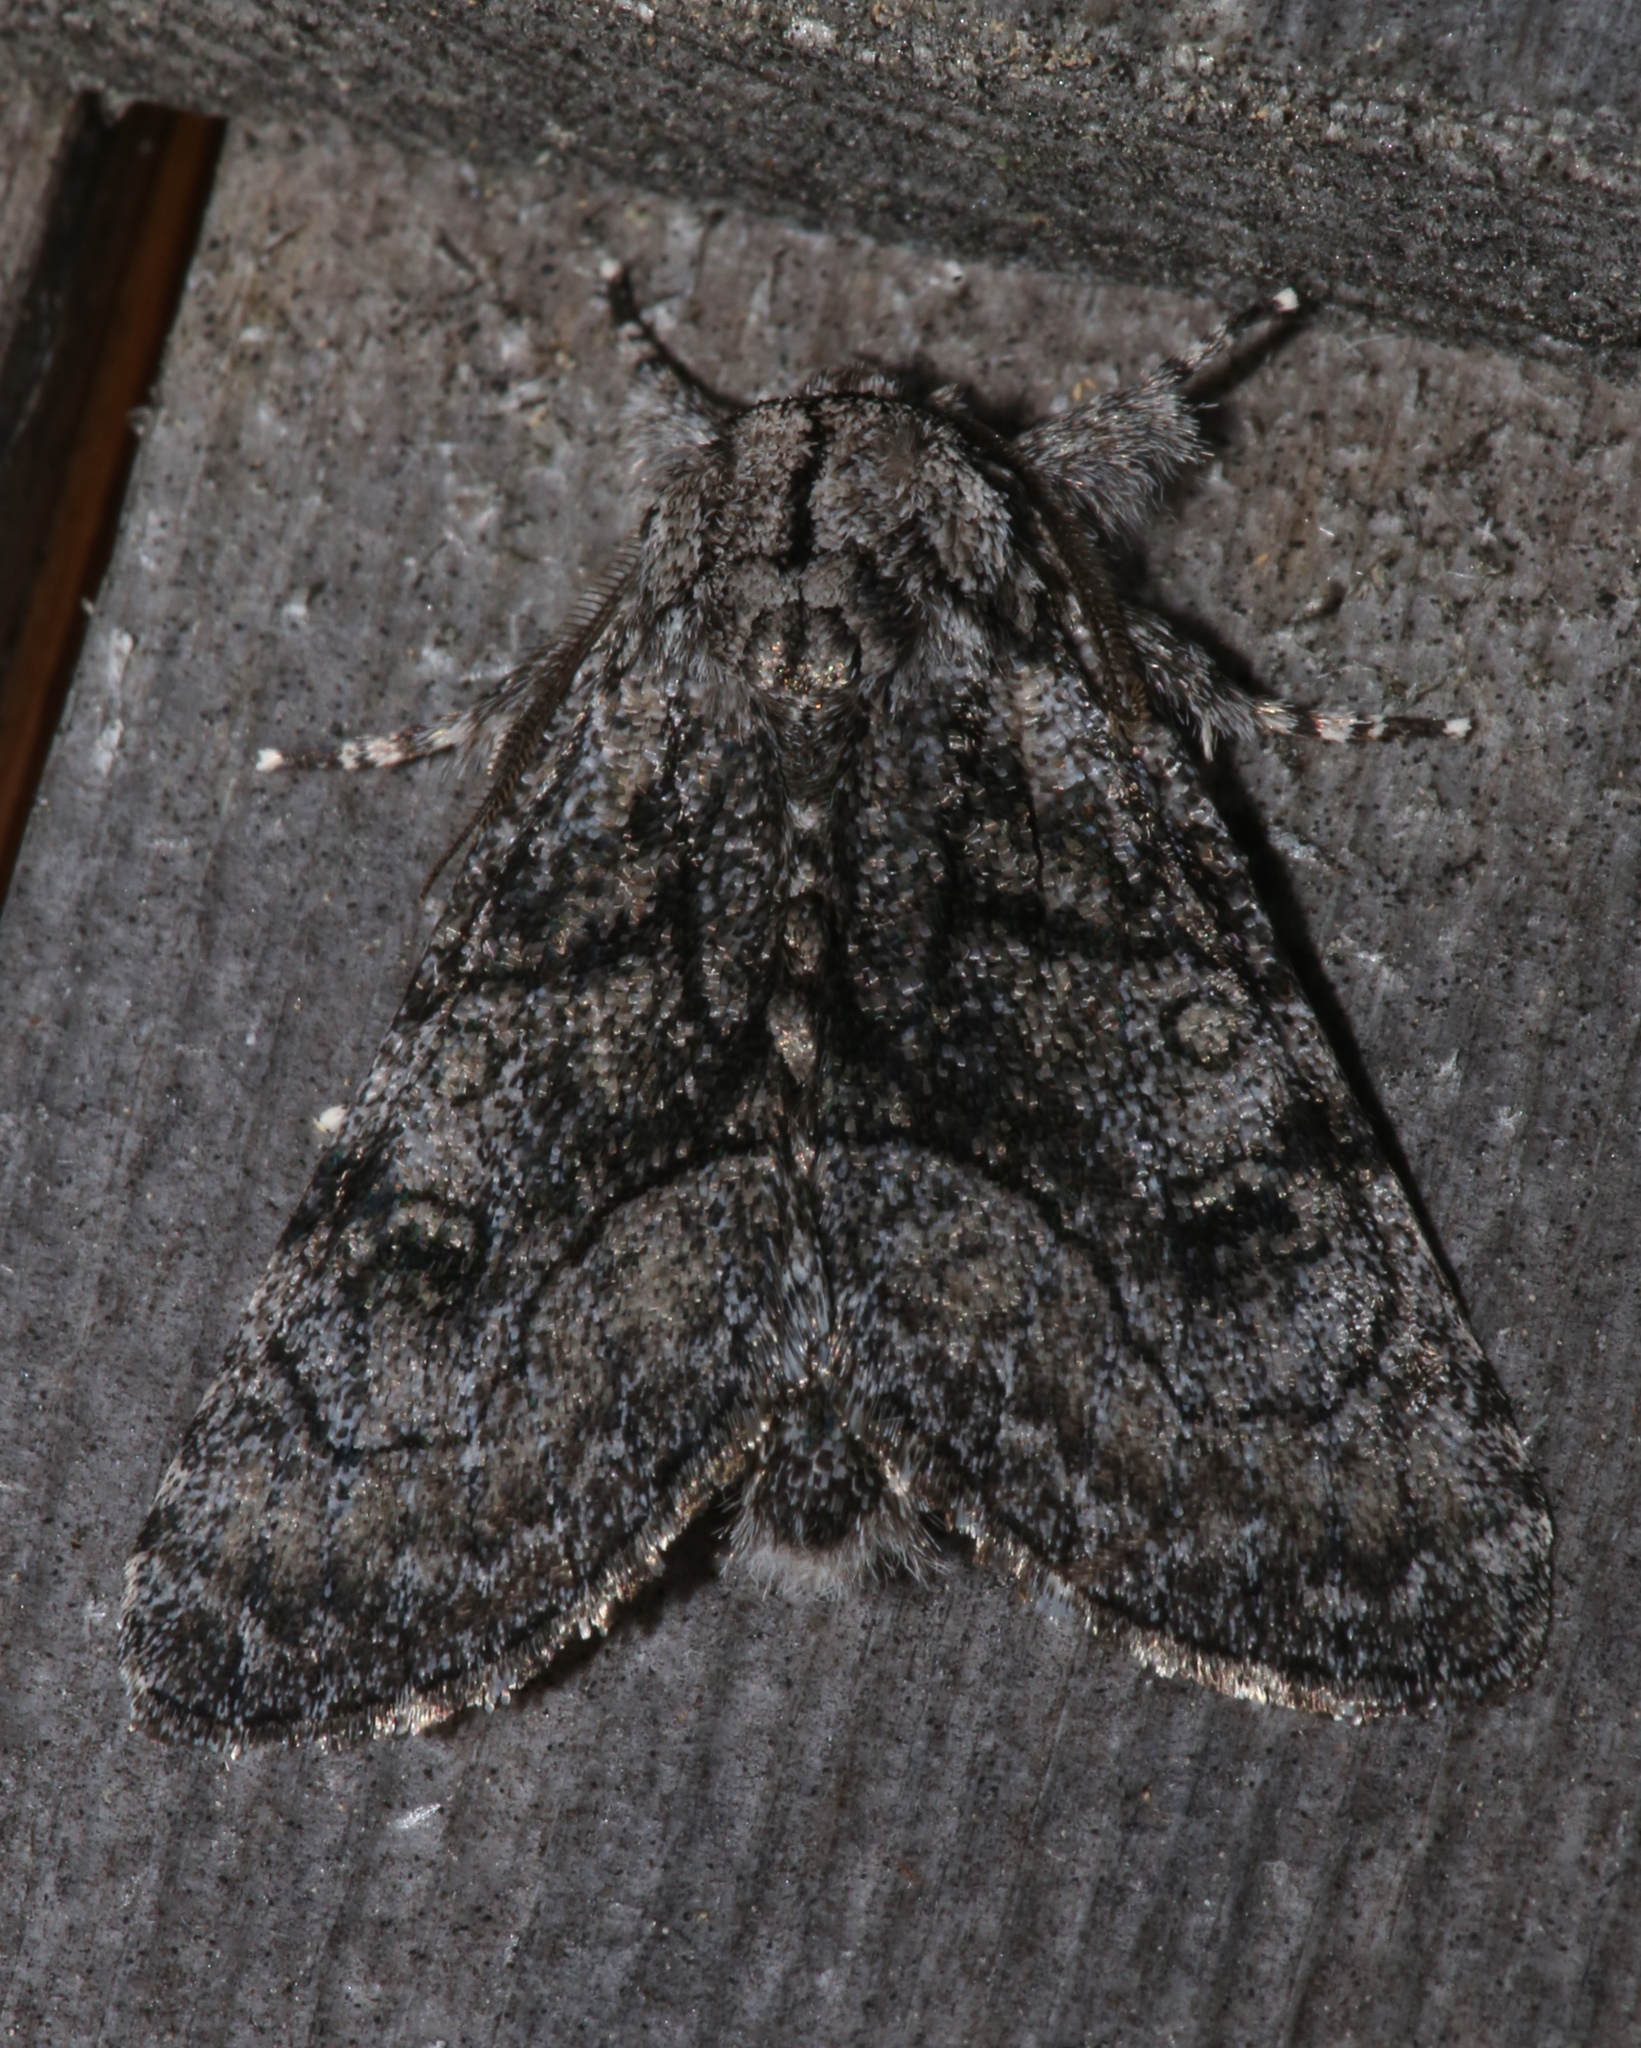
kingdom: Animalia
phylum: Arthropoda
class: Insecta
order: Lepidoptera
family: Noctuidae
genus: Raphia
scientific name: Raphia frater
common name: Brother
